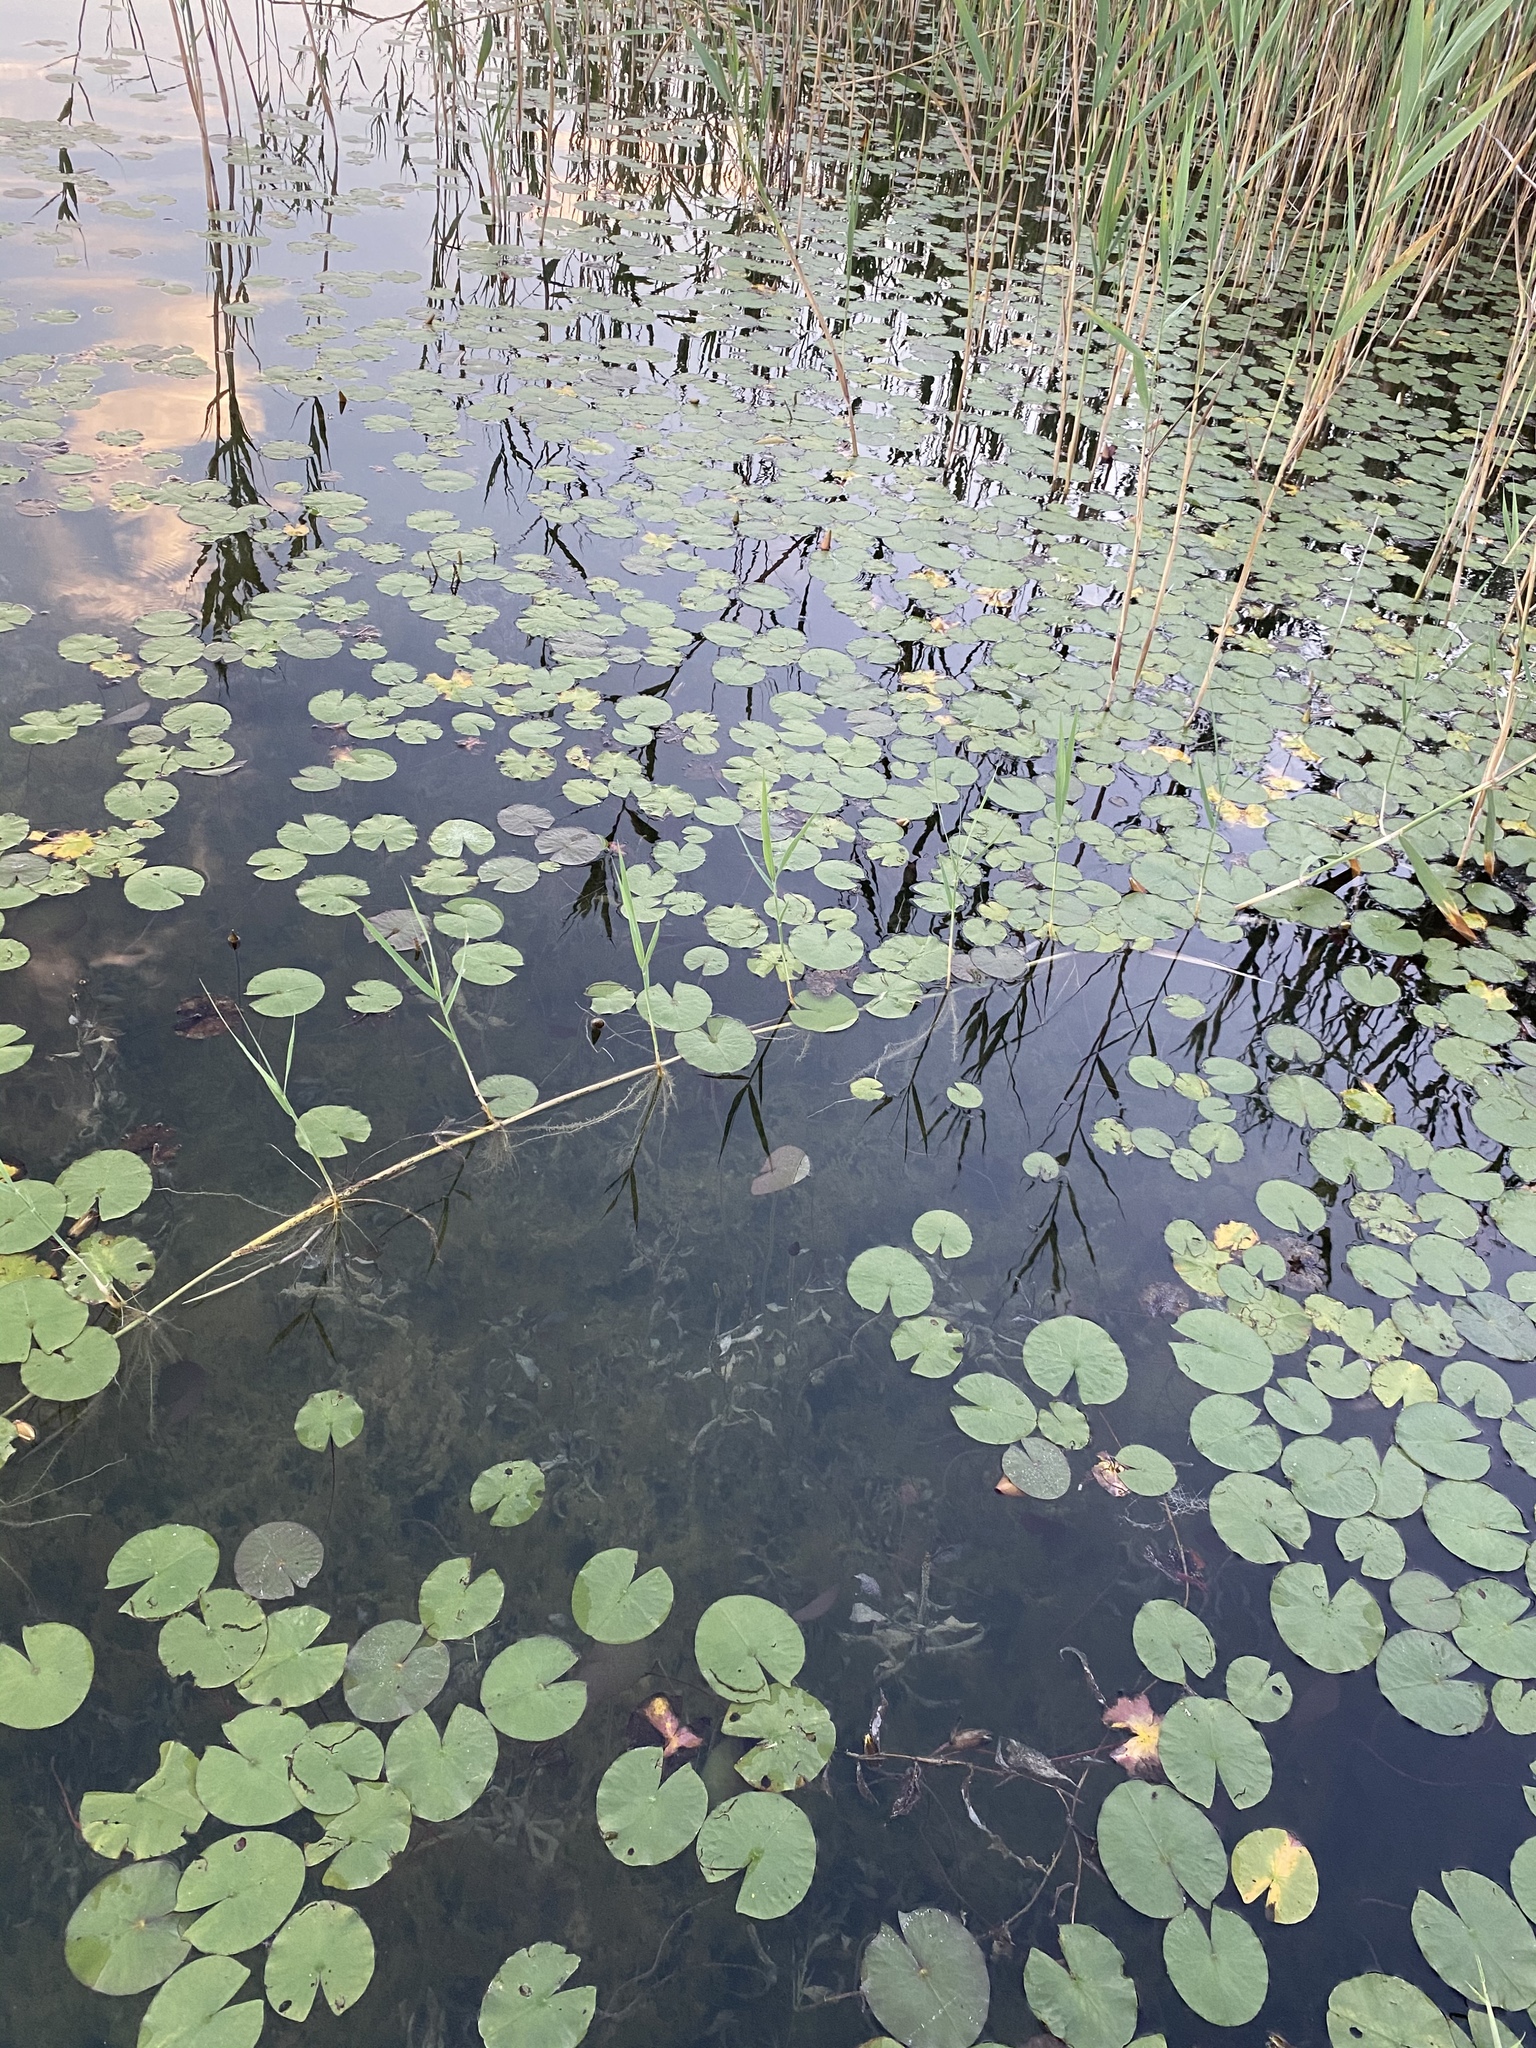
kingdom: Plantae
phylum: Tracheophyta
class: Liliopsida
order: Poales
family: Poaceae
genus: Phragmites
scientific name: Phragmites australis
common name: Common reed
